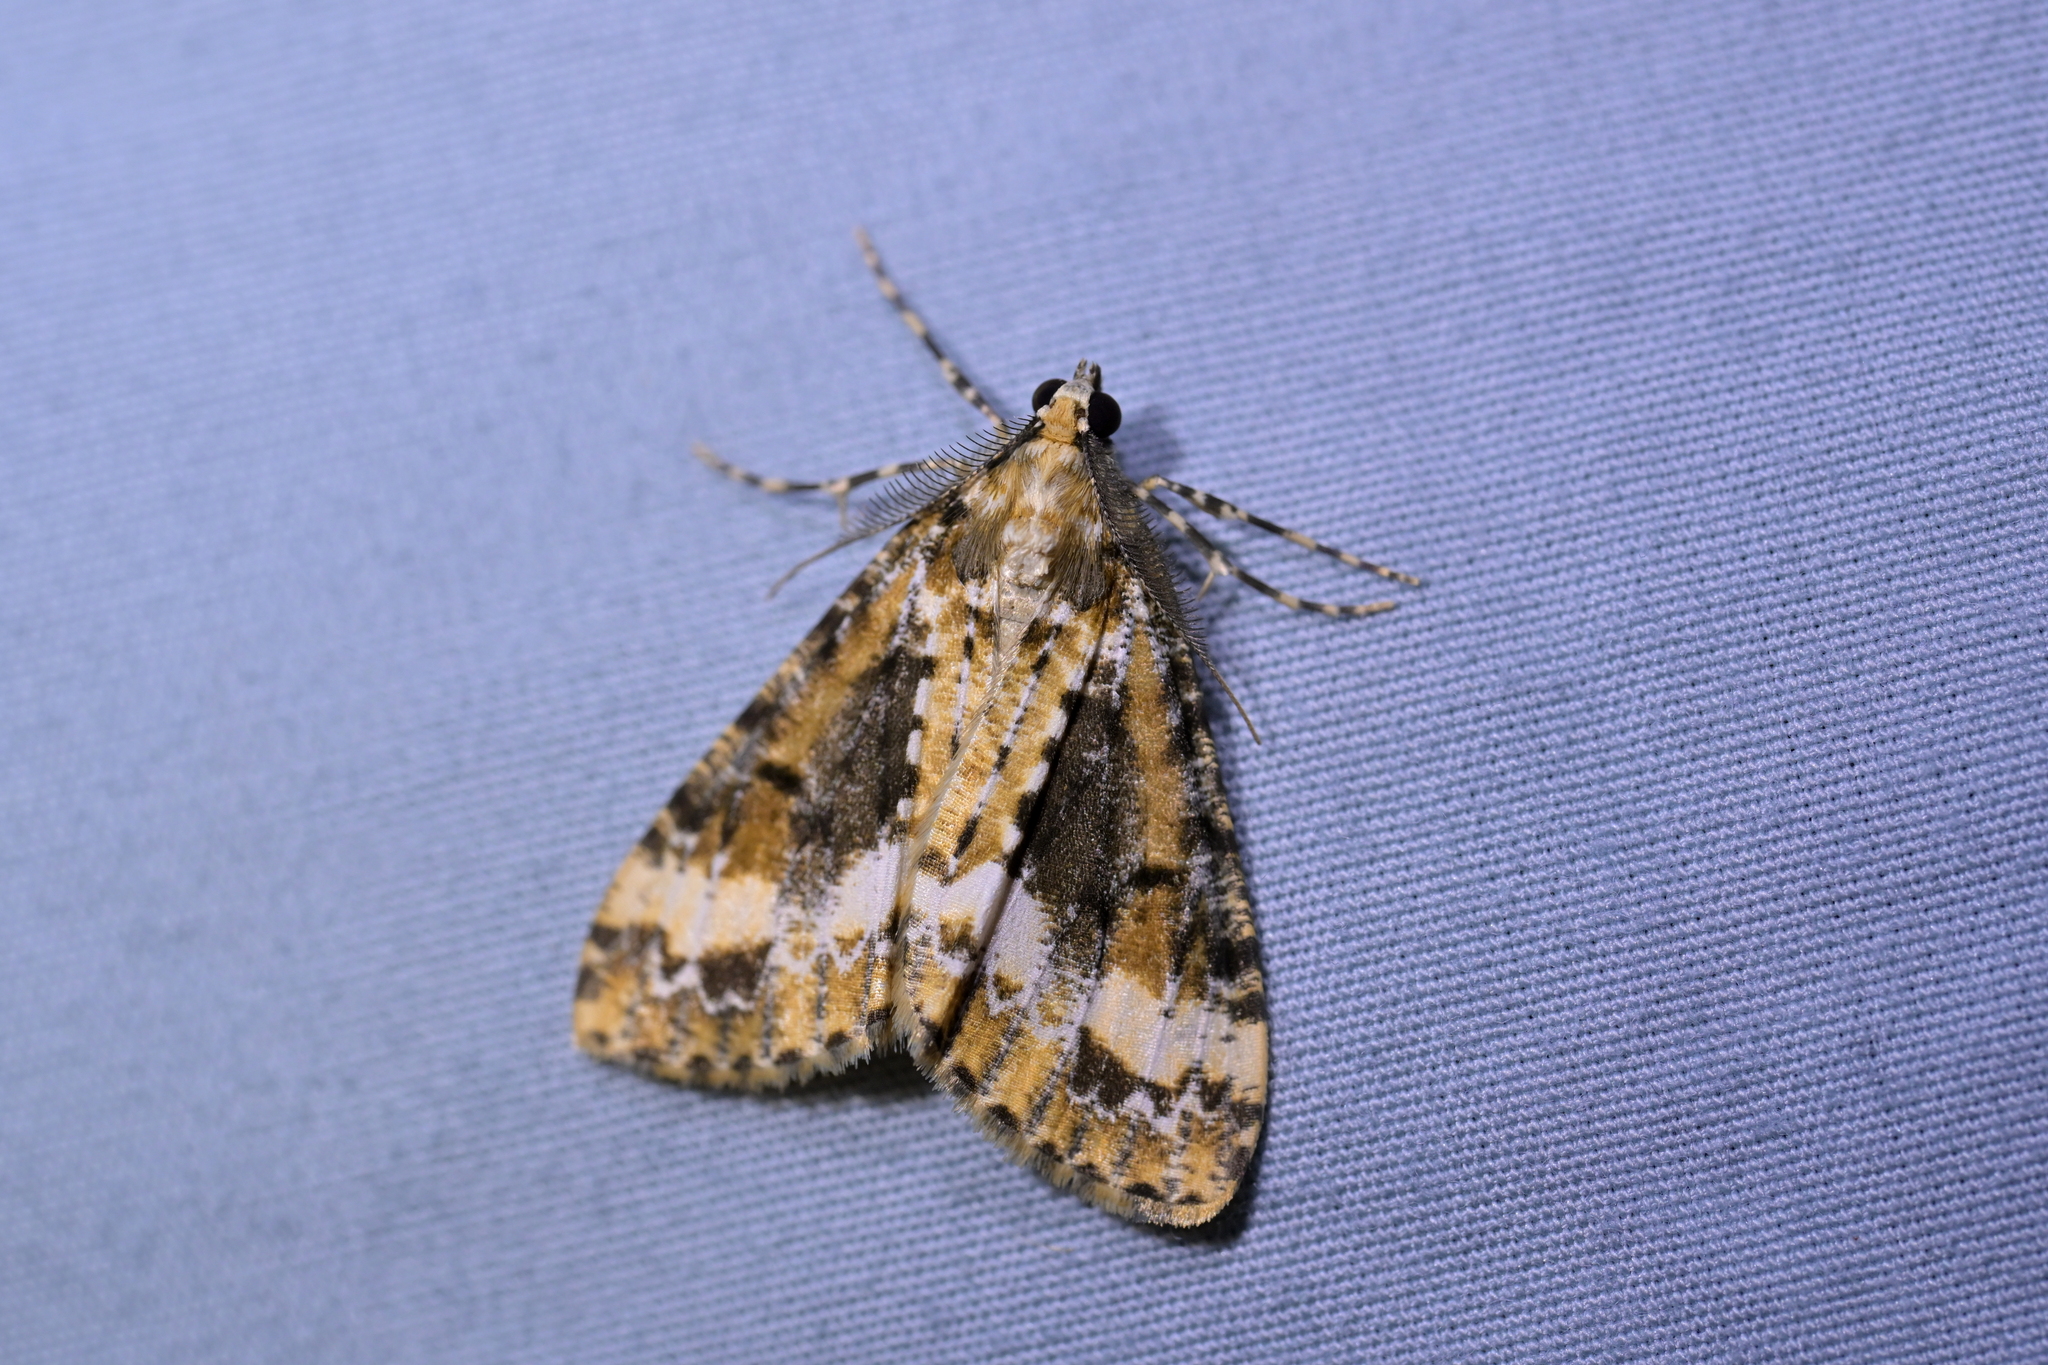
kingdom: Animalia
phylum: Arthropoda
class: Insecta
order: Lepidoptera
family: Geometridae
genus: Pseudocoremia
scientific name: Pseudocoremia leucelaea
